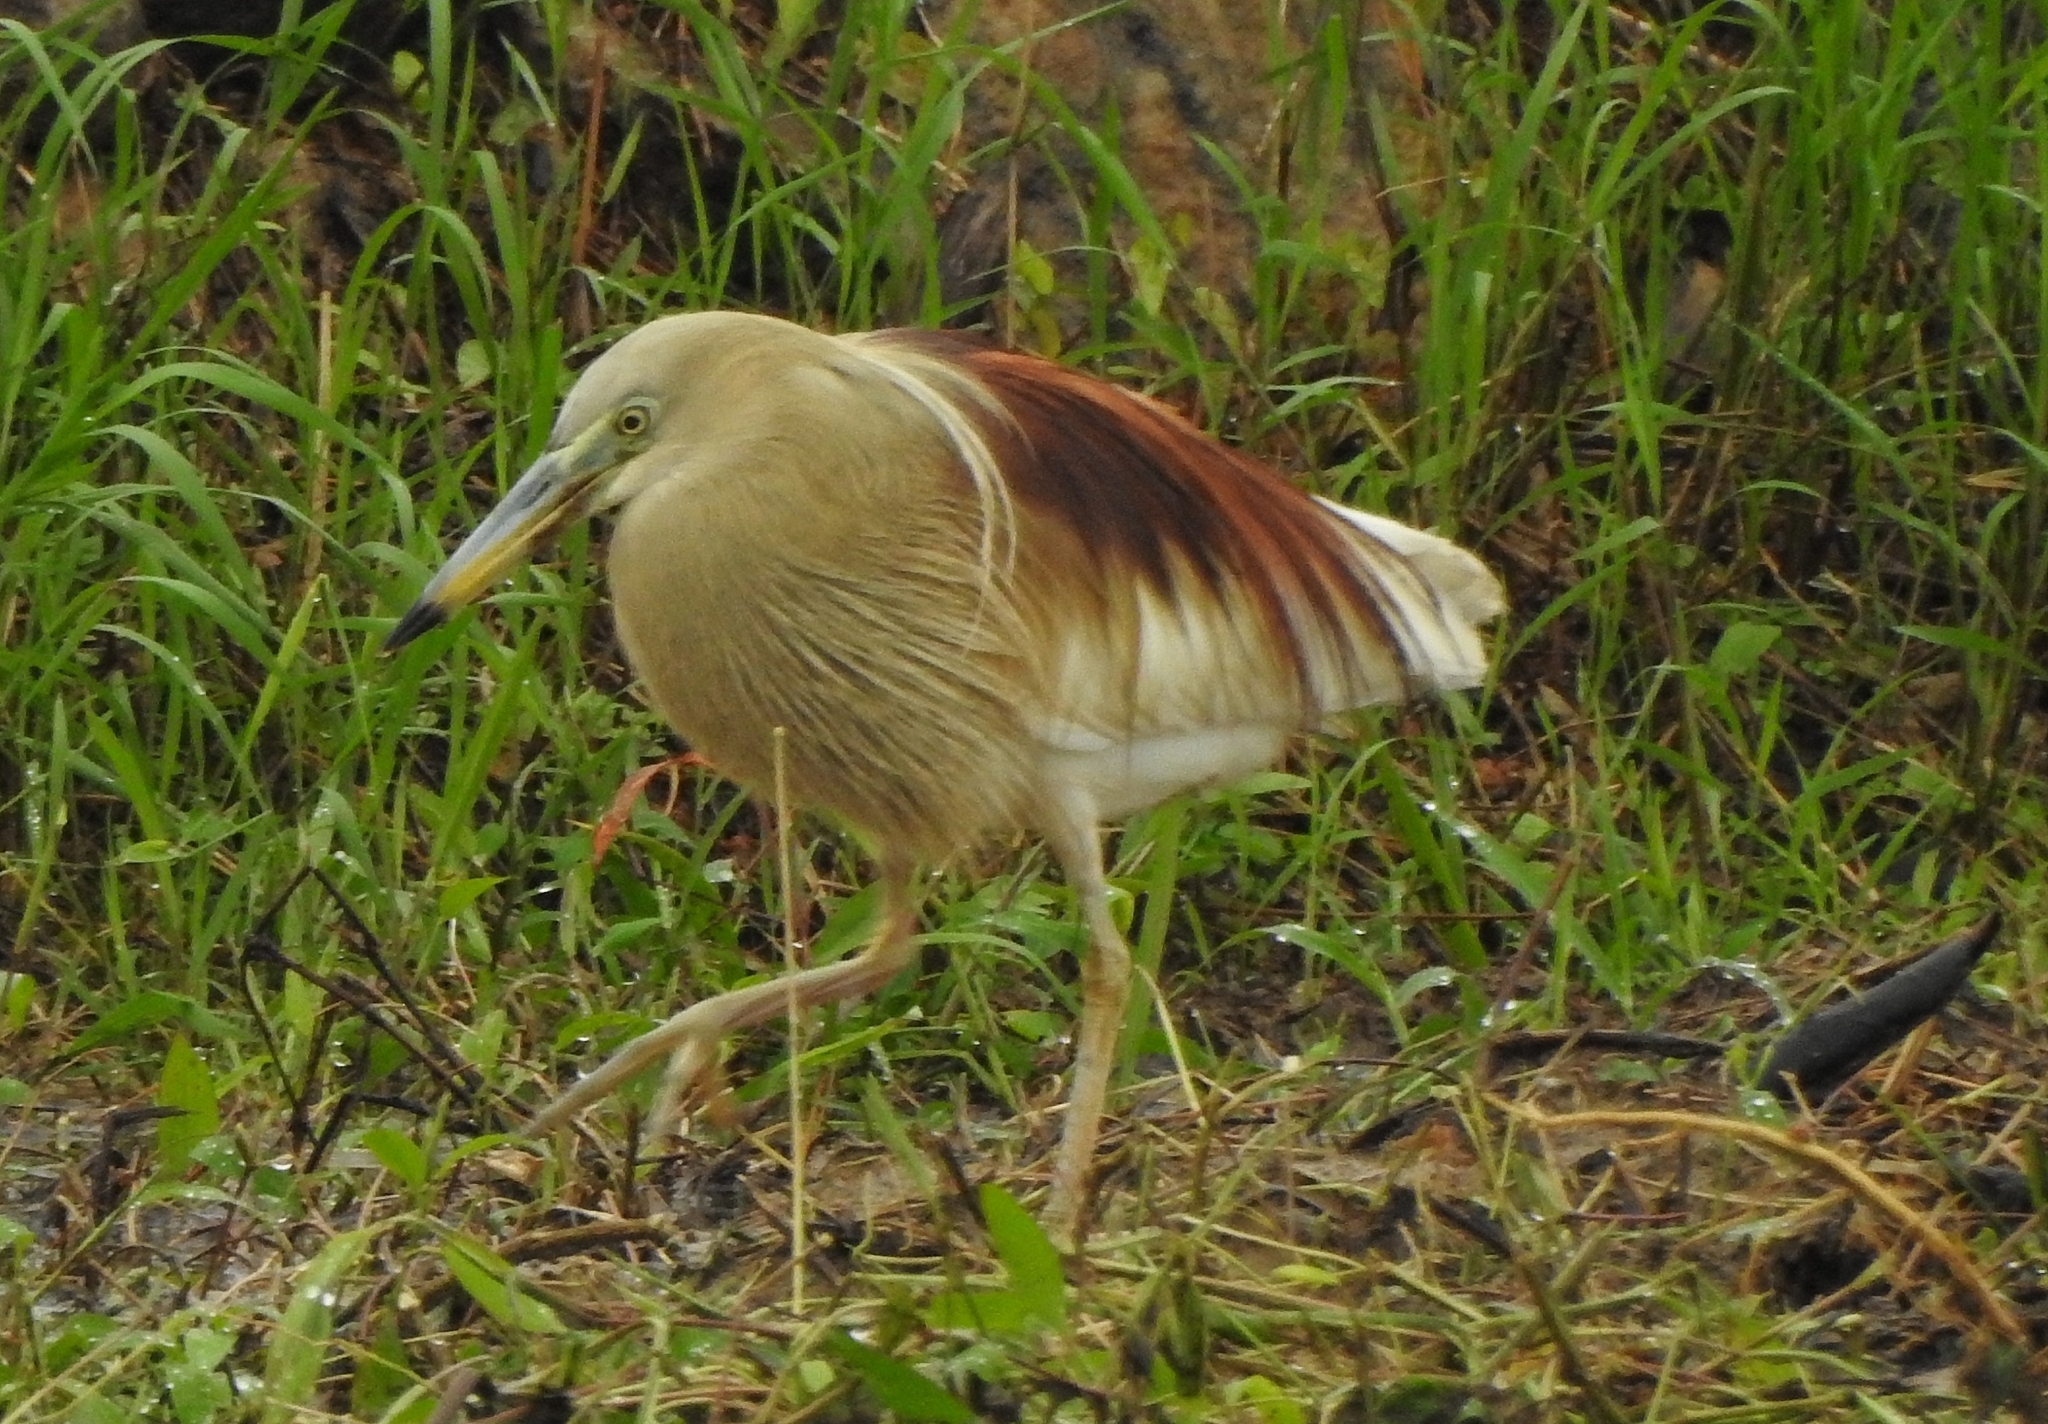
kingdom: Animalia
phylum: Chordata
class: Aves
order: Pelecaniformes
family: Ardeidae
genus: Ardeola
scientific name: Ardeola grayii
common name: Indian pond heron
